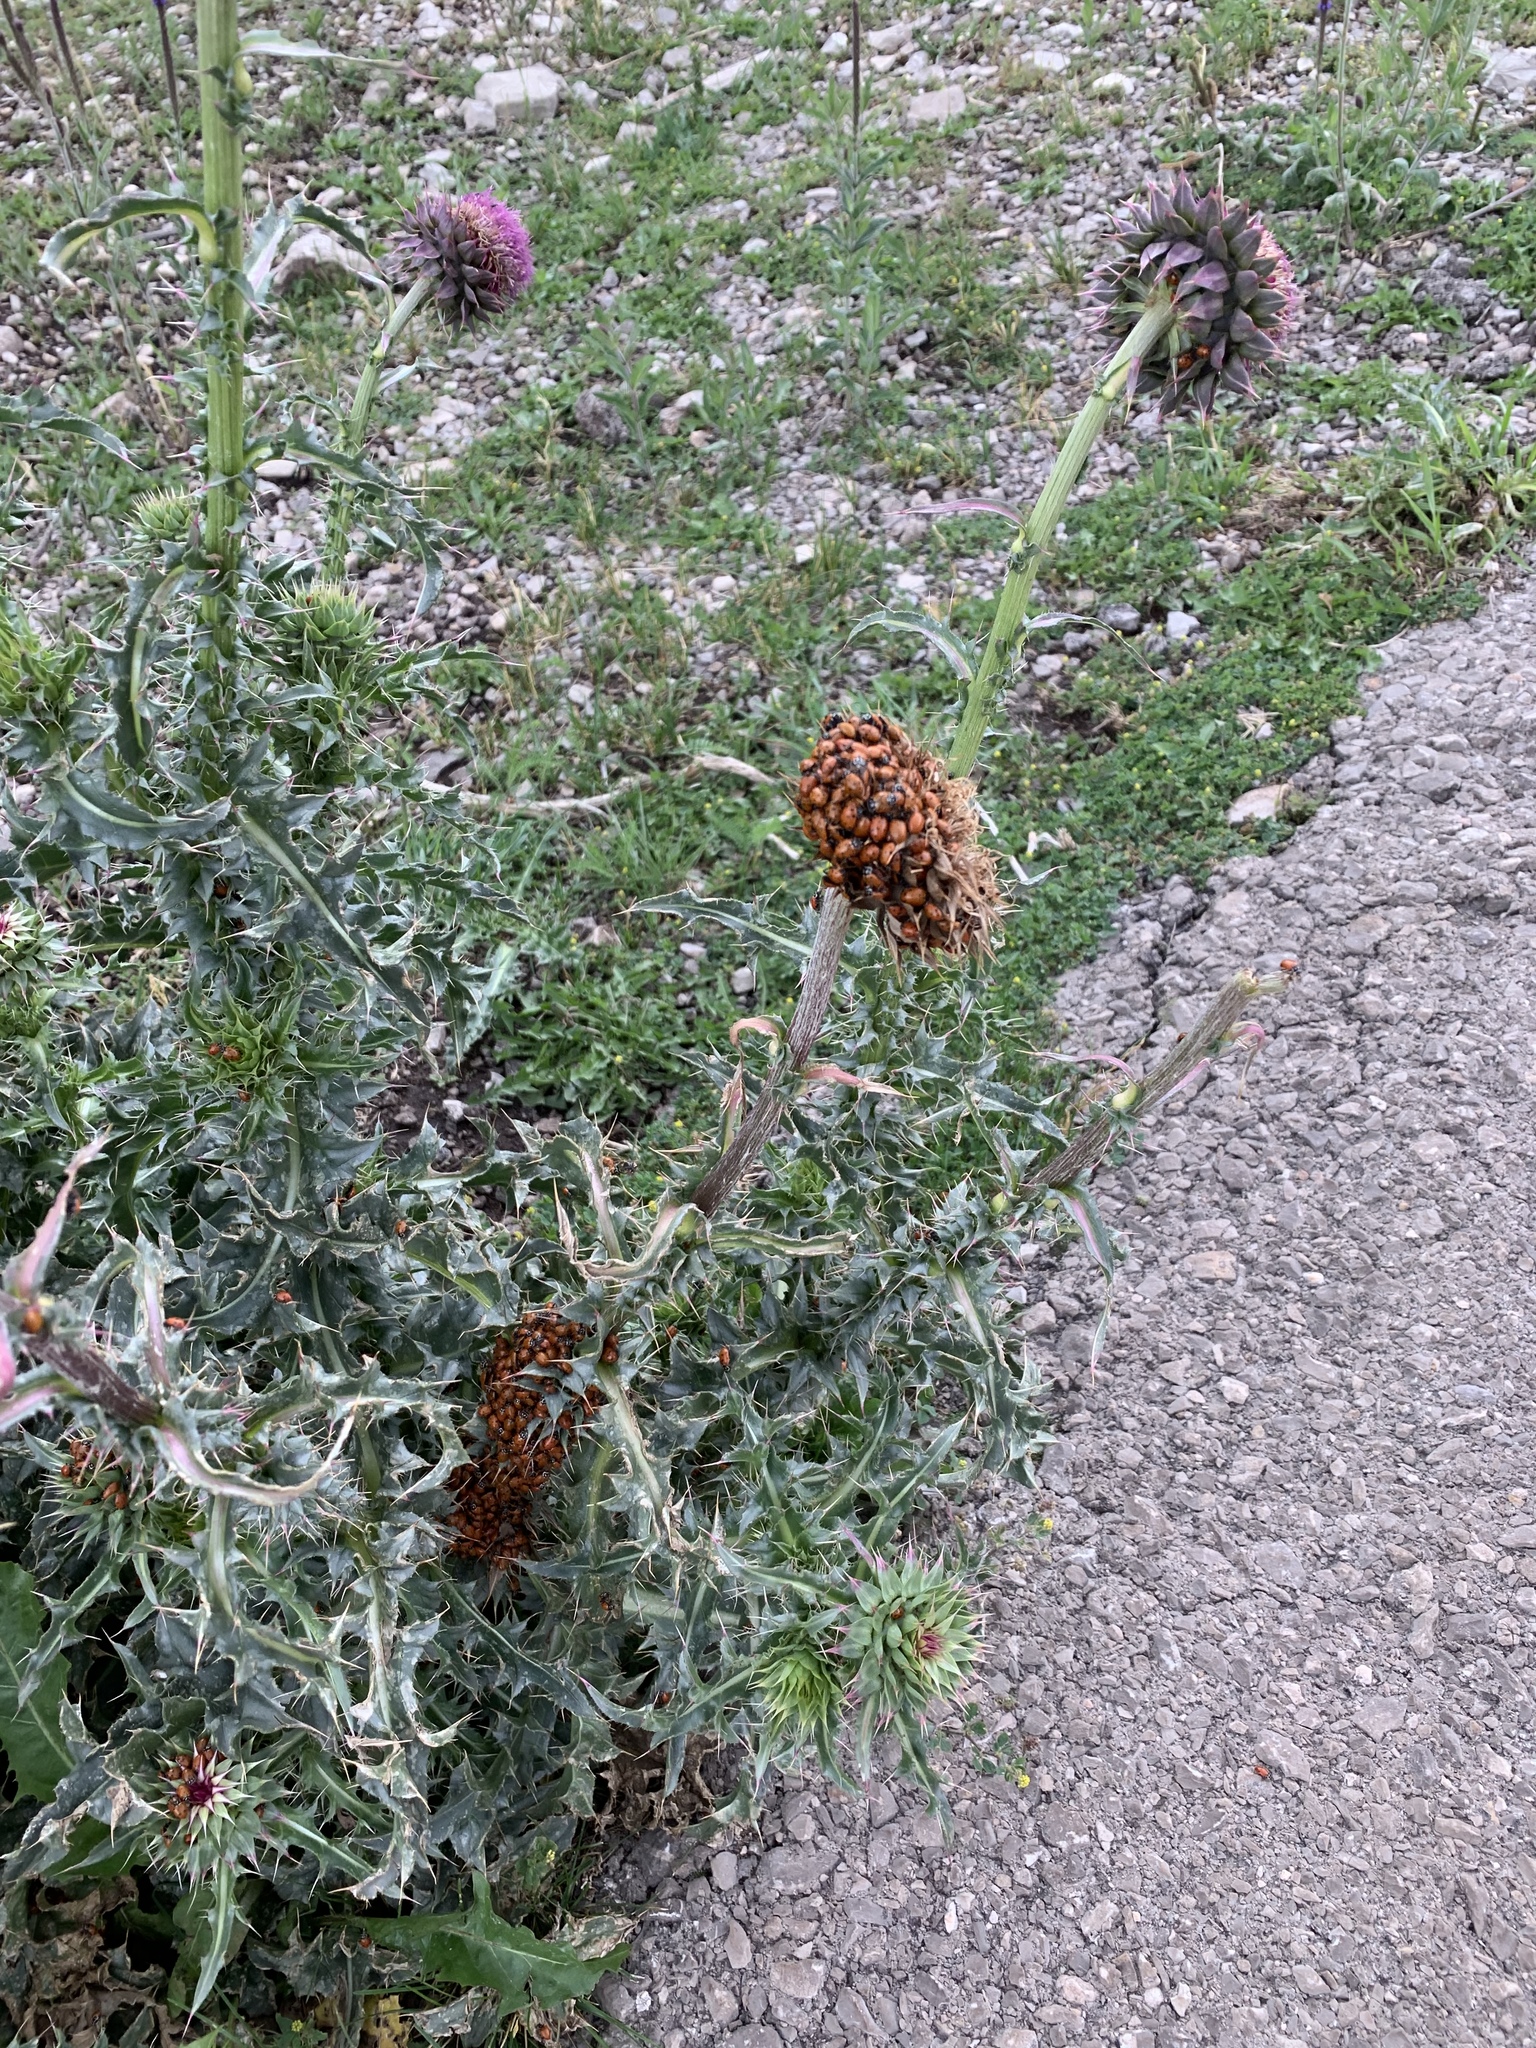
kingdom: Animalia
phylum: Arthropoda
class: Insecta
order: Coleoptera
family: Coccinellidae
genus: Hippodamia
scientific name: Hippodamia convergens
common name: Convergent lady beetle
